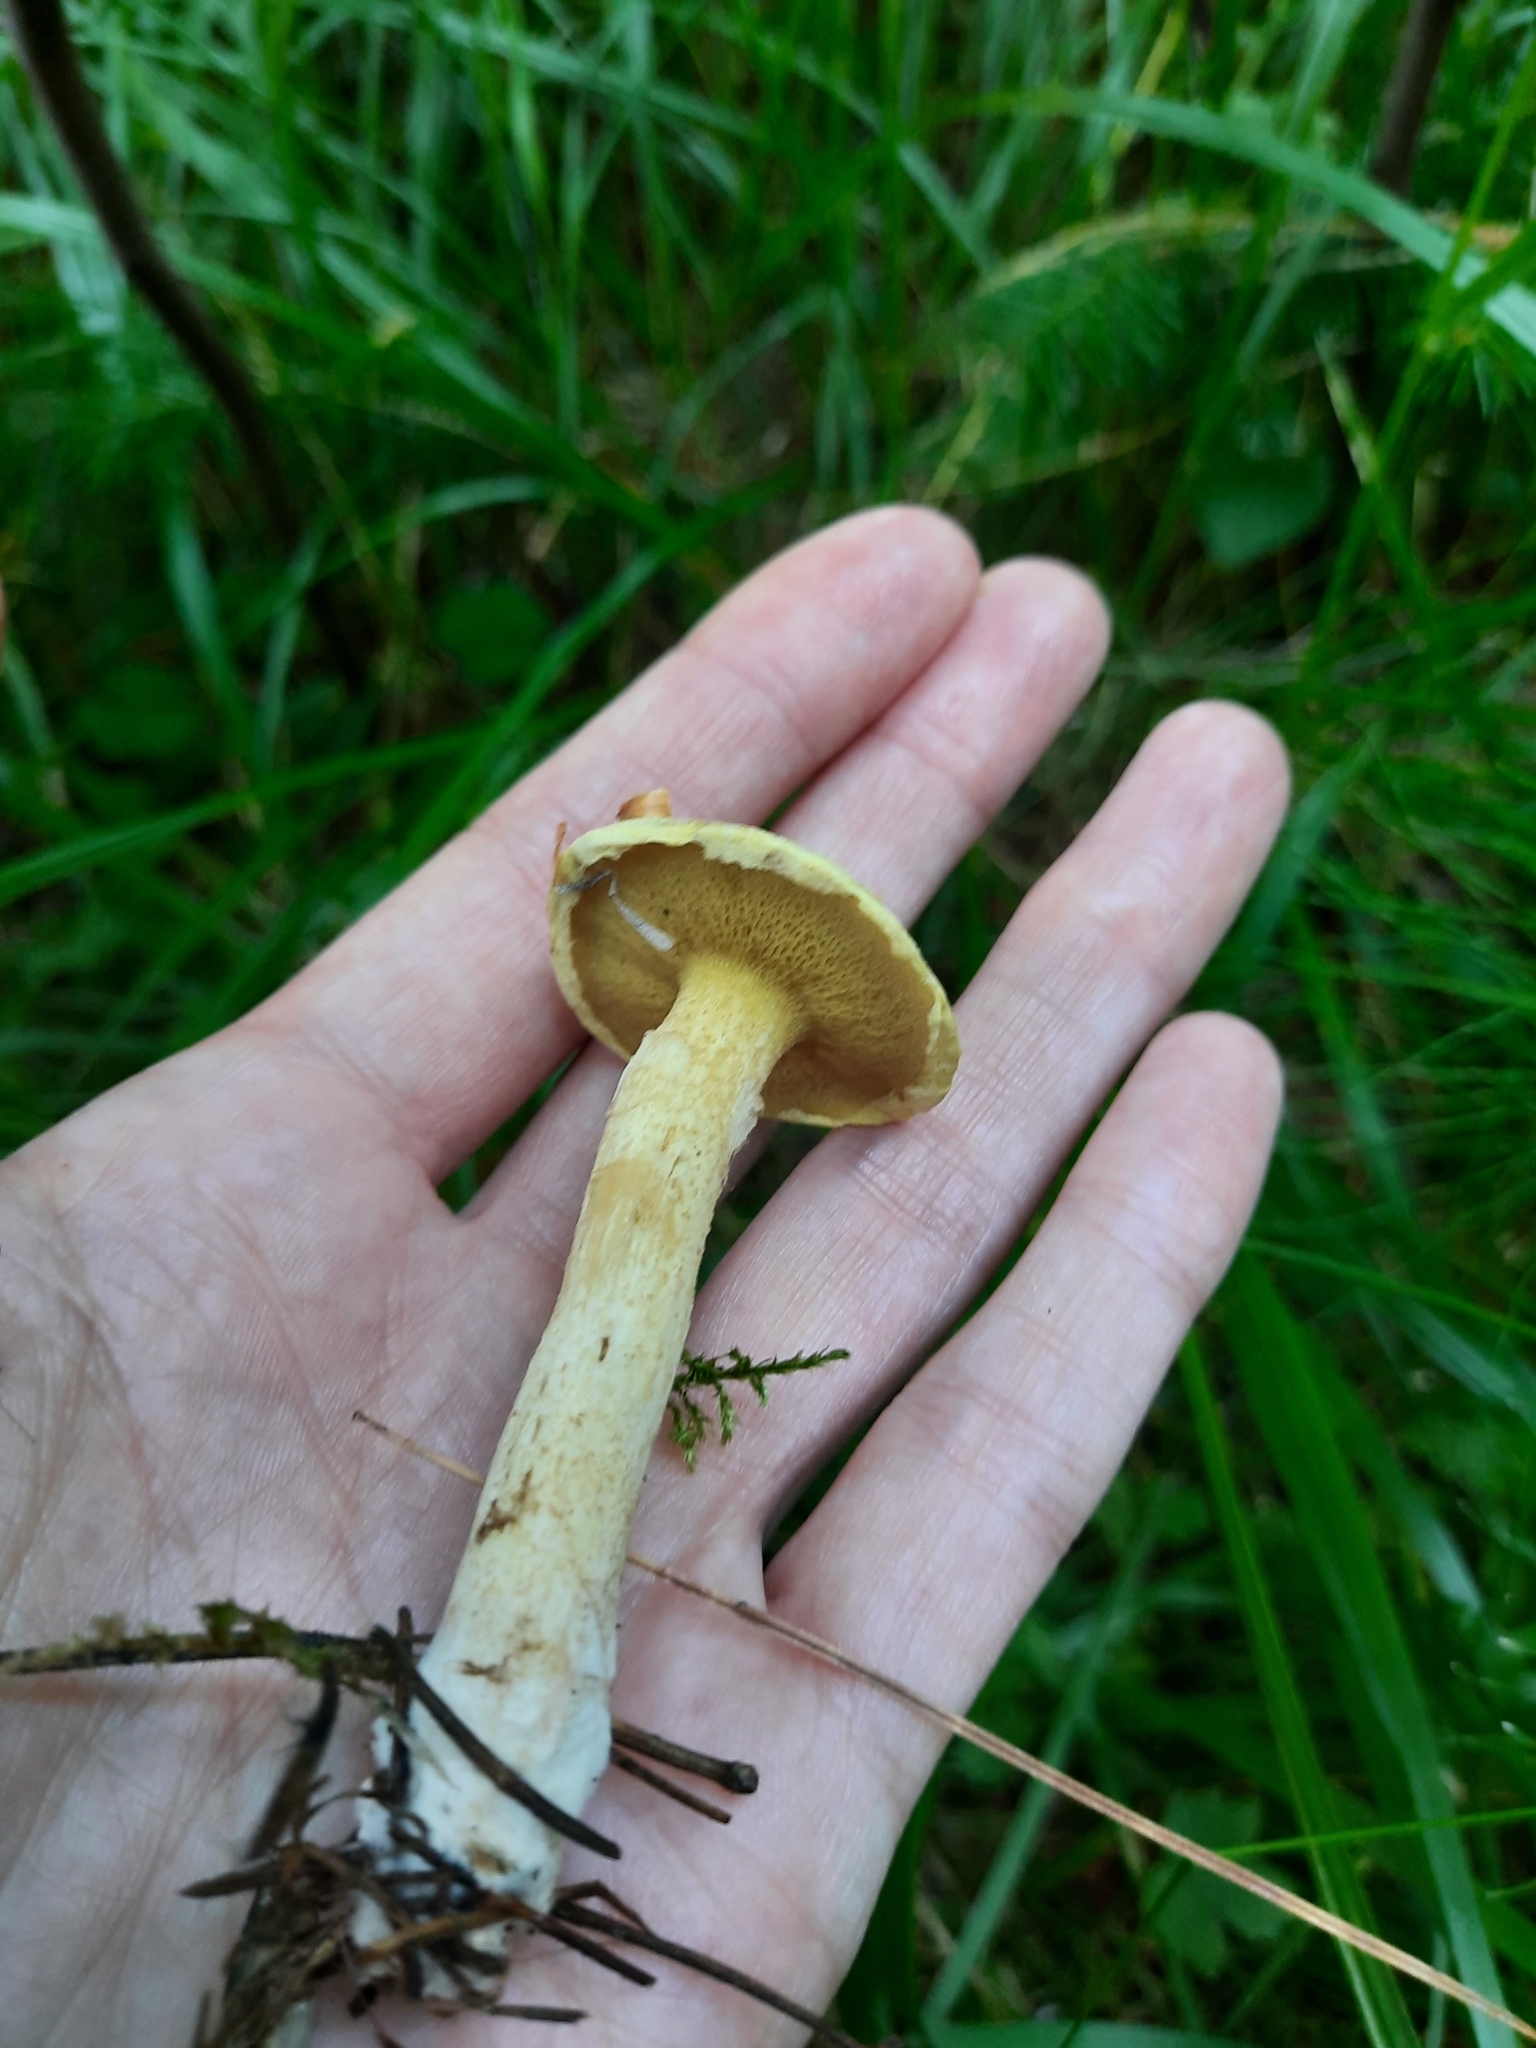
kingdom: Fungi
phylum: Basidiomycota
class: Agaricomycetes
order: Boletales
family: Suillaceae
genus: Suillus
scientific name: Suillus americanus
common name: Chicken fat mushroom
